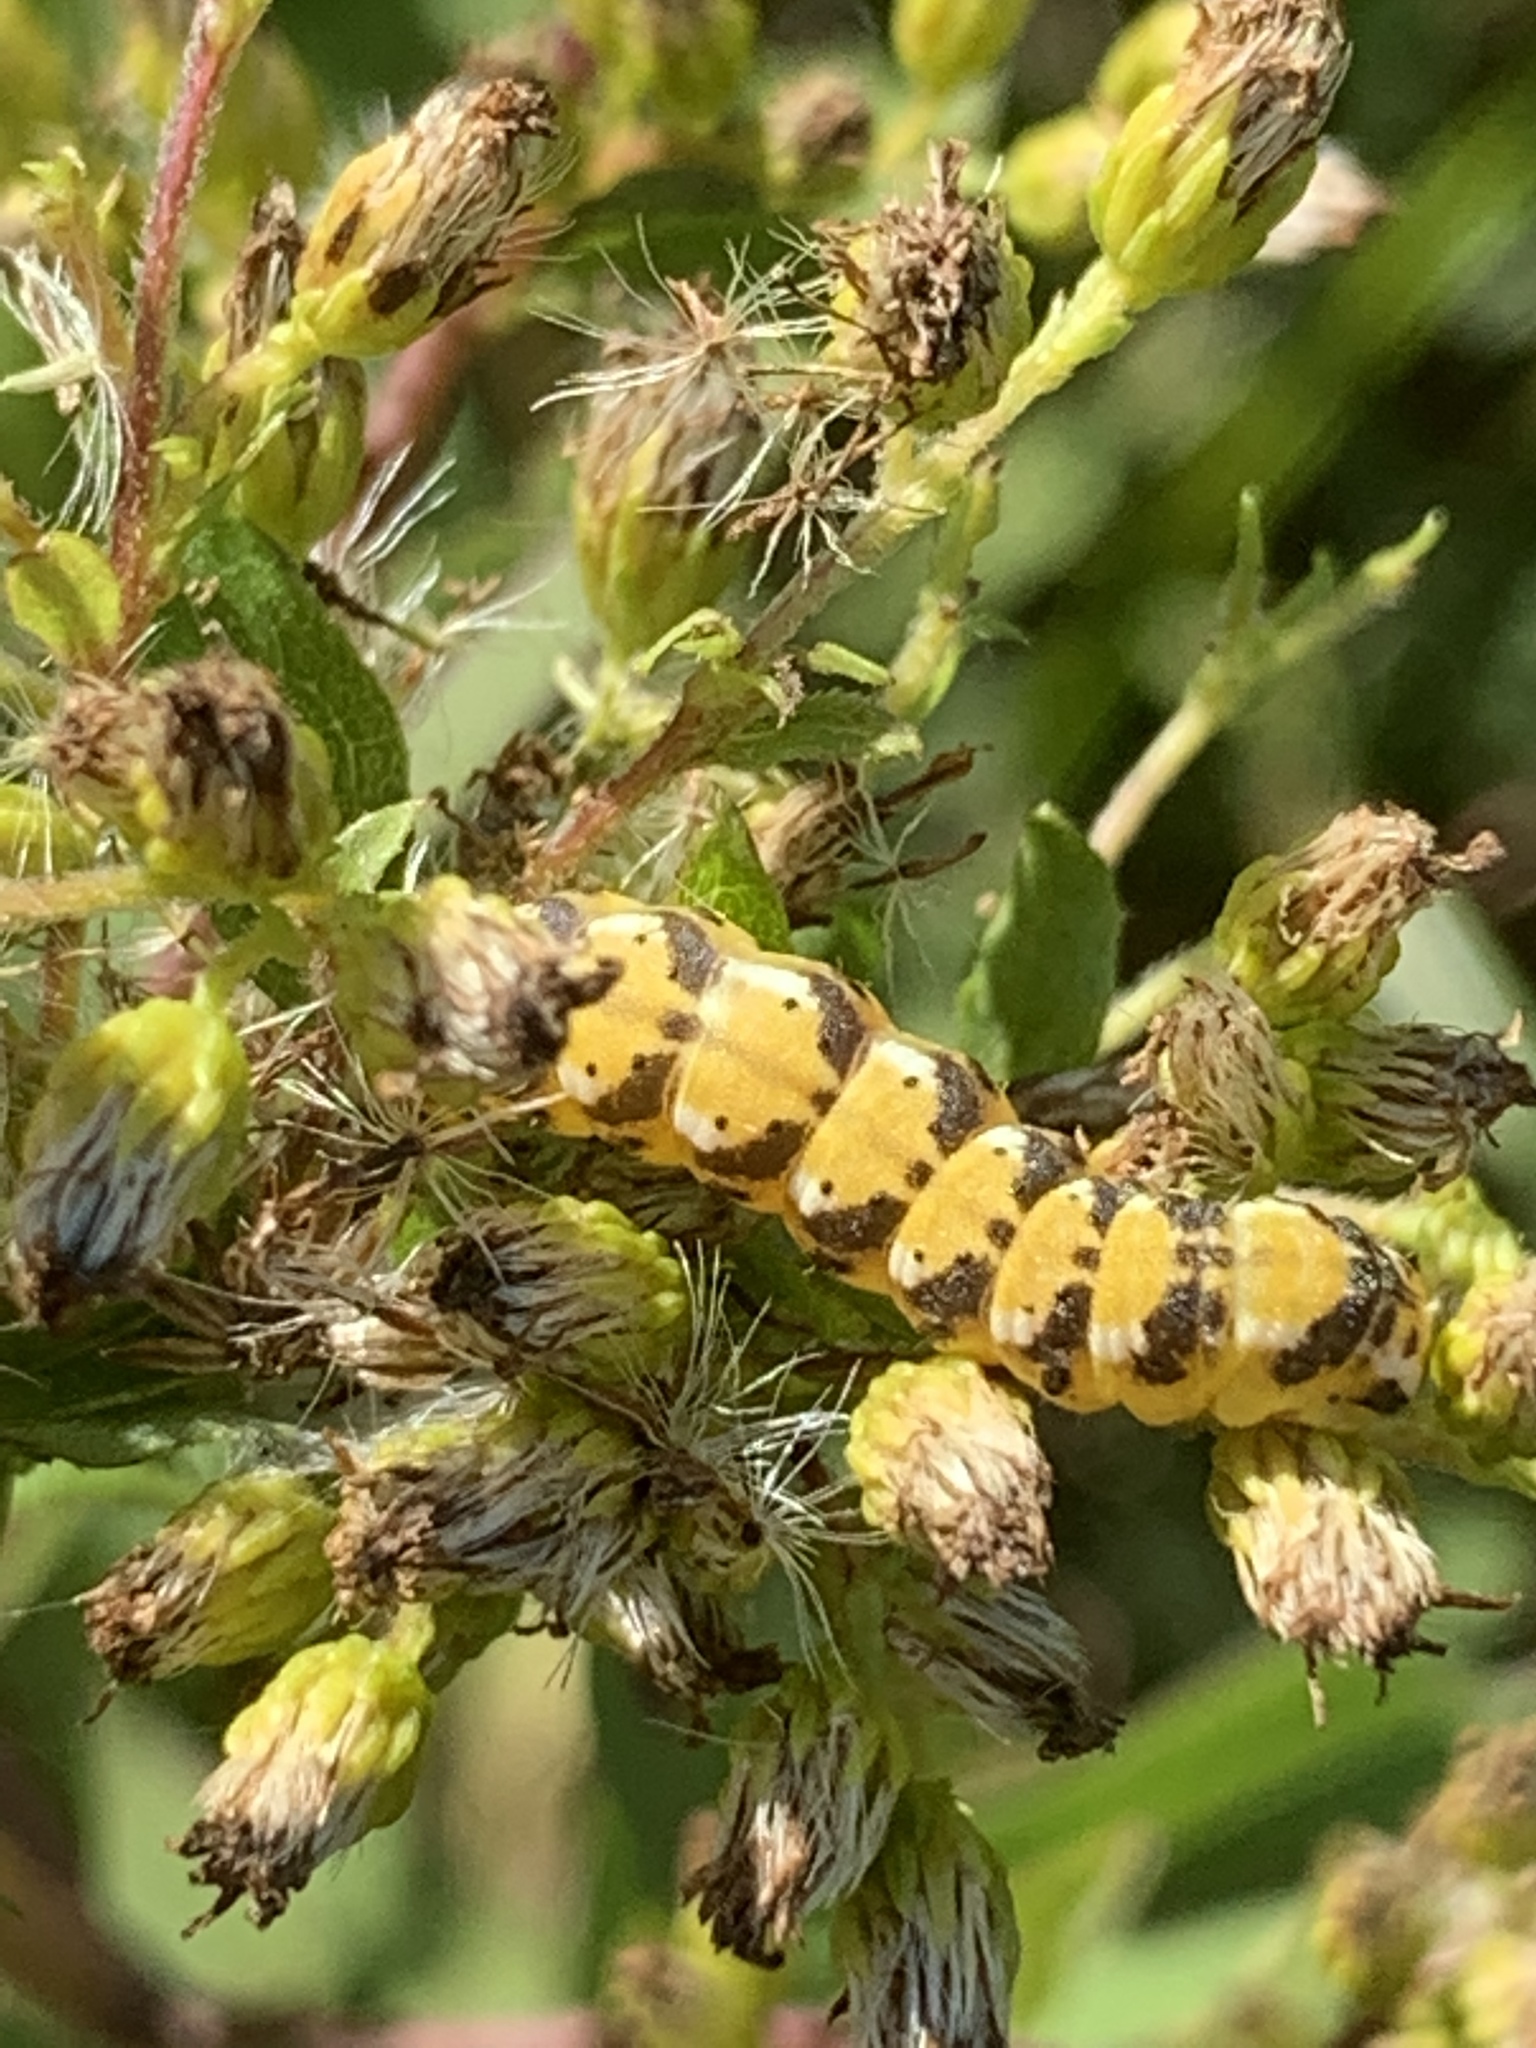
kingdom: Animalia
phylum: Arthropoda
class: Insecta
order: Lepidoptera
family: Noctuidae
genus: Schinia
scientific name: Schinia nundina
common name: Goldenrod flower moth
